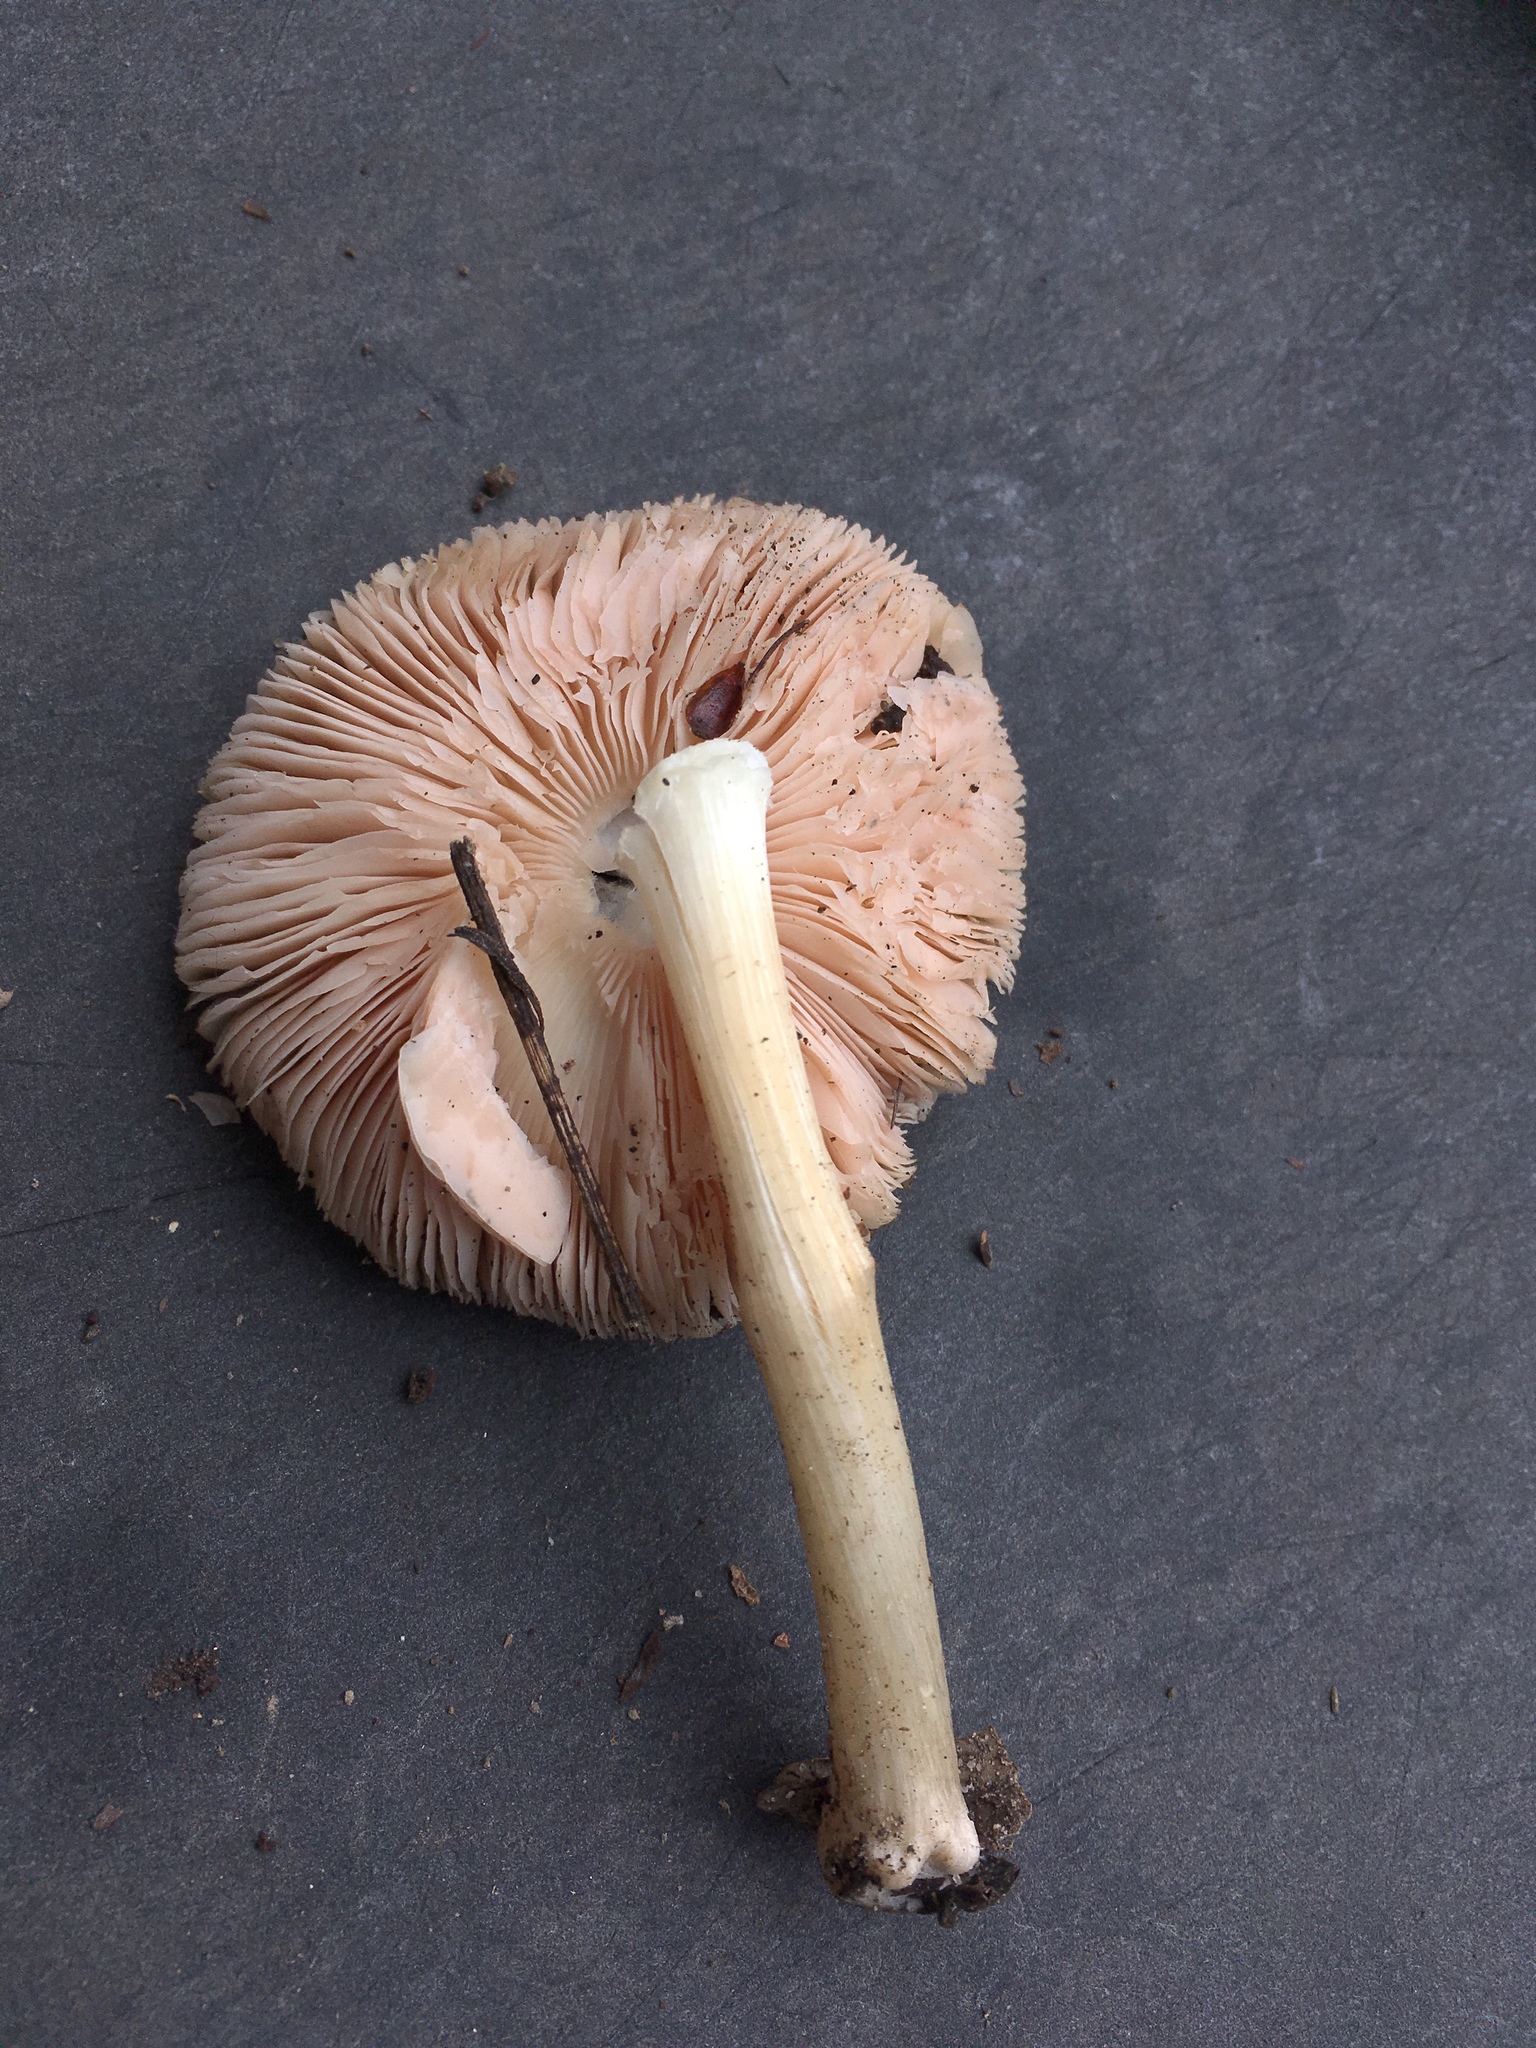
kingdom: Fungi
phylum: Basidiomycota
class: Agaricomycetes
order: Agaricales
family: Pluteaceae
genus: Volvopluteus
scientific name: Volvopluteus gloiocephalus
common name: Stubble rosegill
